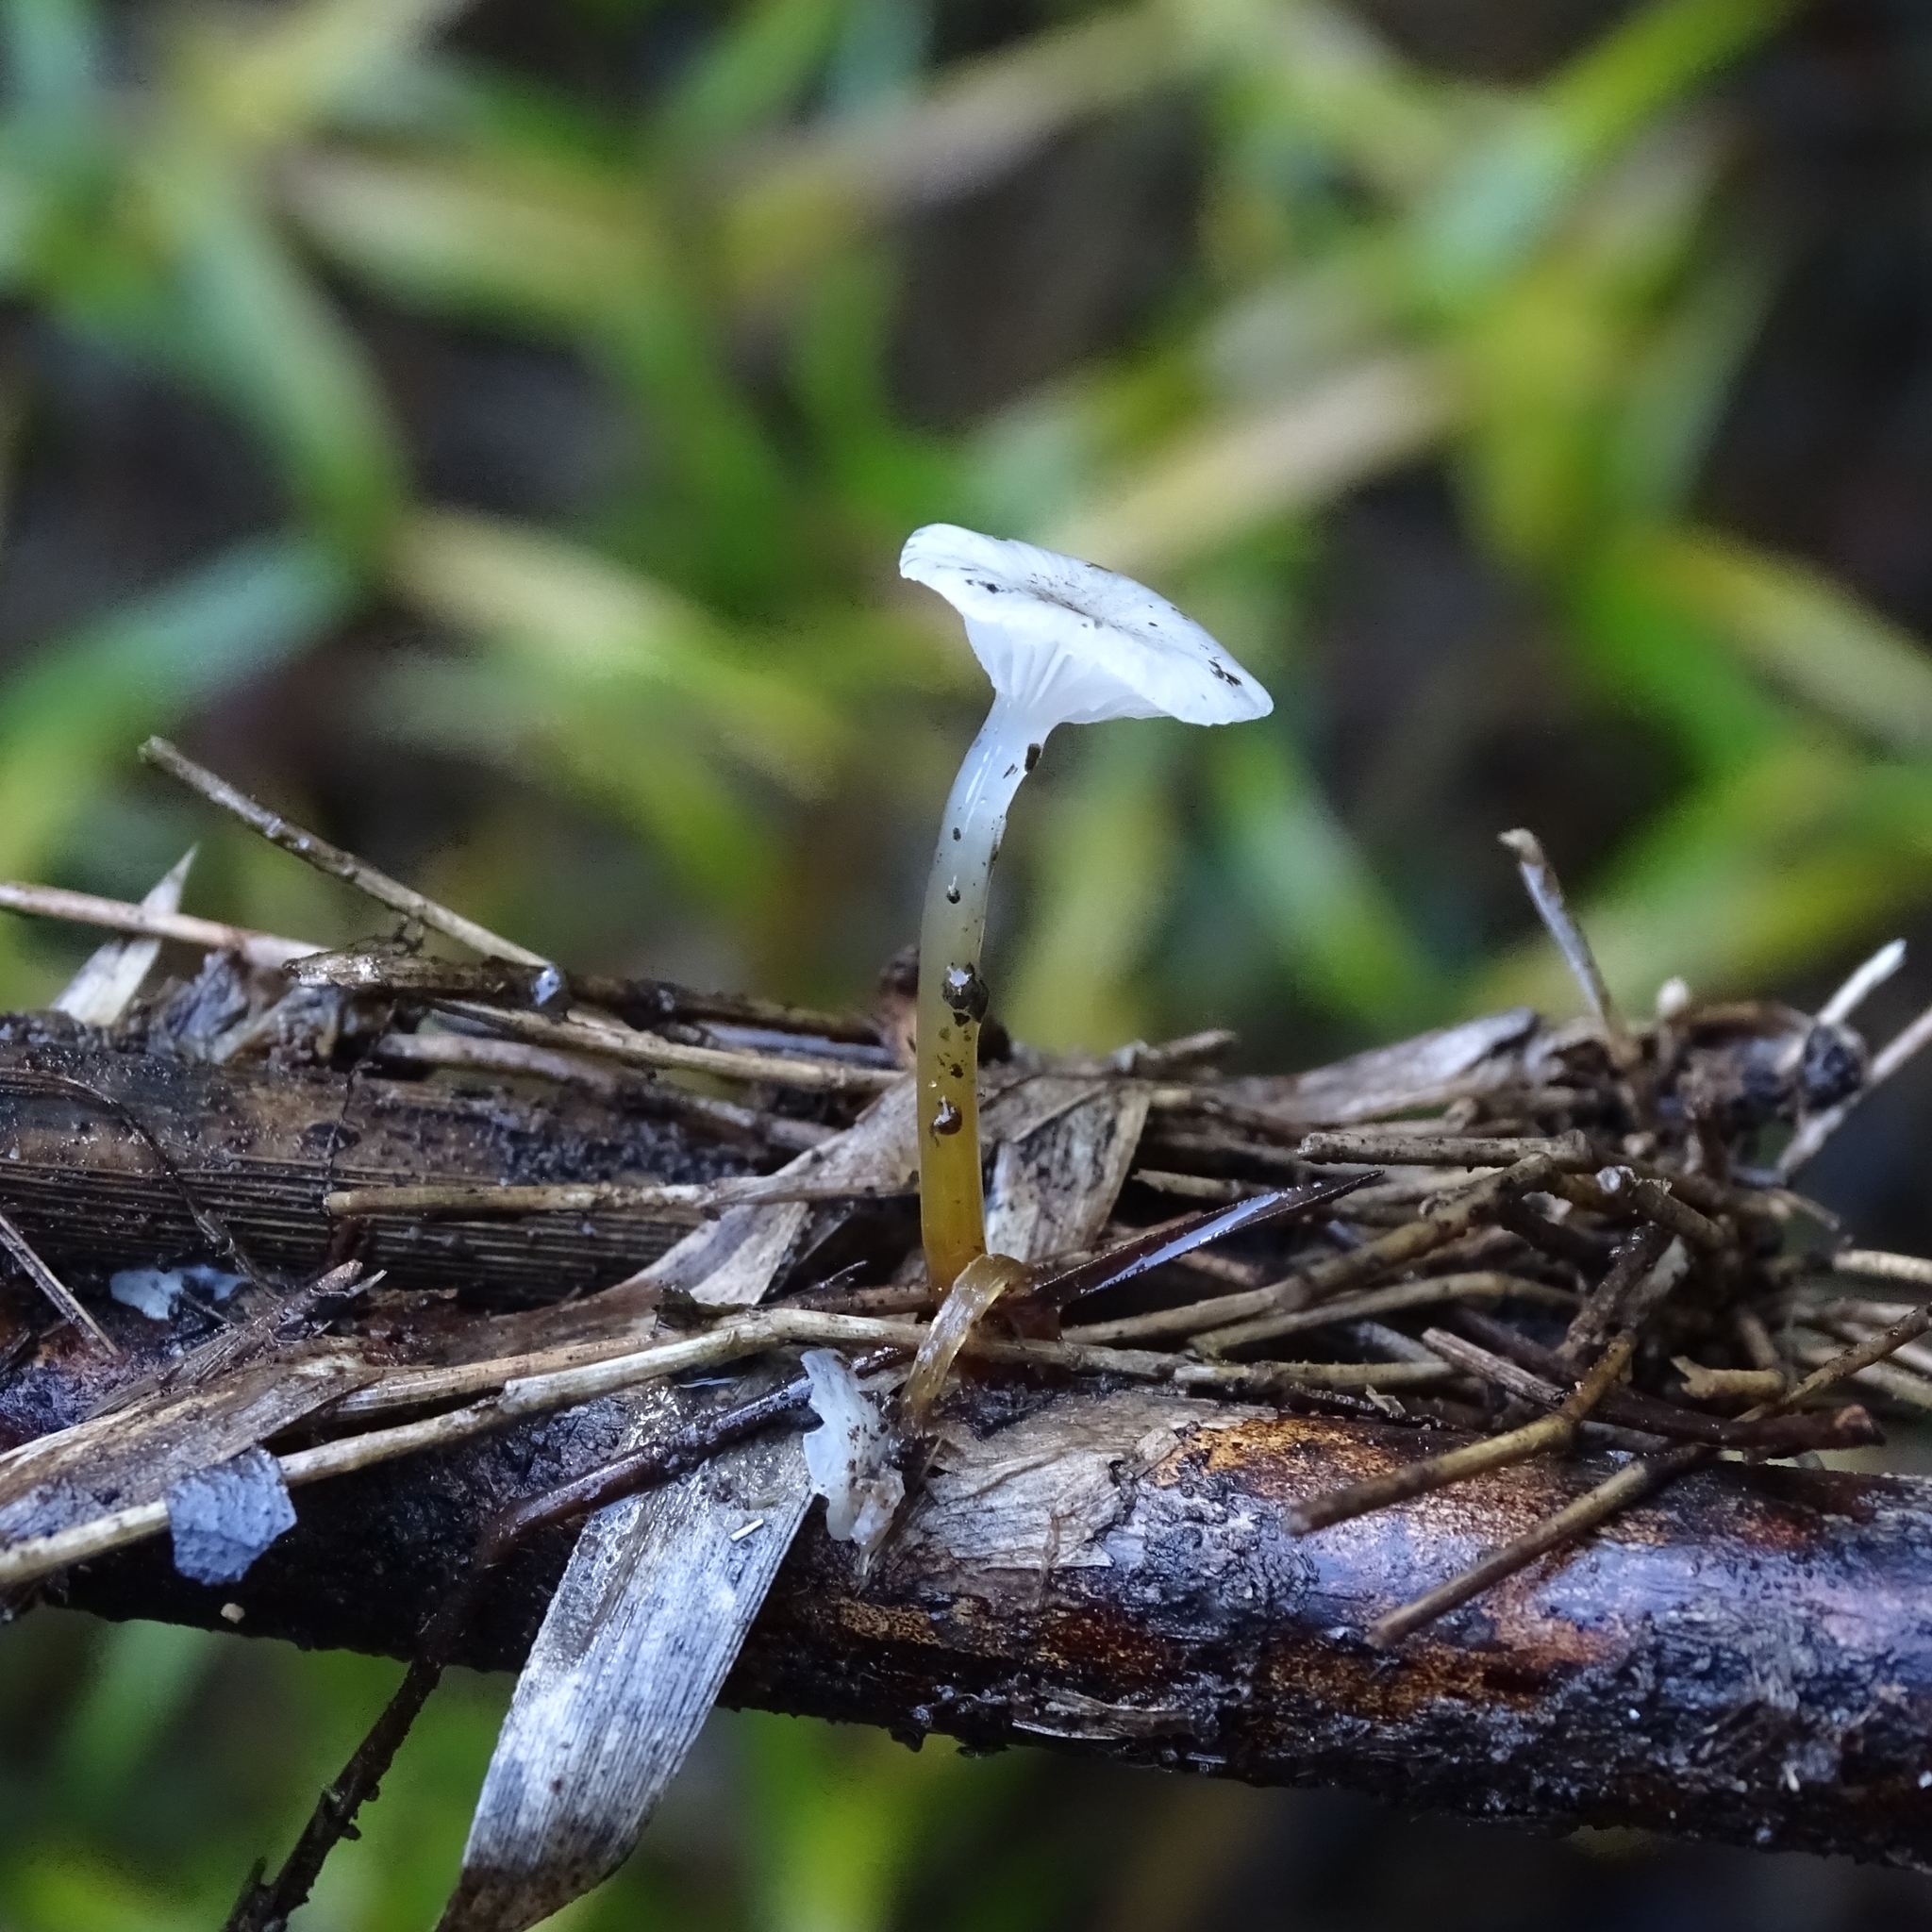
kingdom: Fungi
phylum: Basidiomycota
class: Agaricomycetes
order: Agaricales
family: Mycenaceae
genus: Mycena
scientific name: Mycena subulifera
